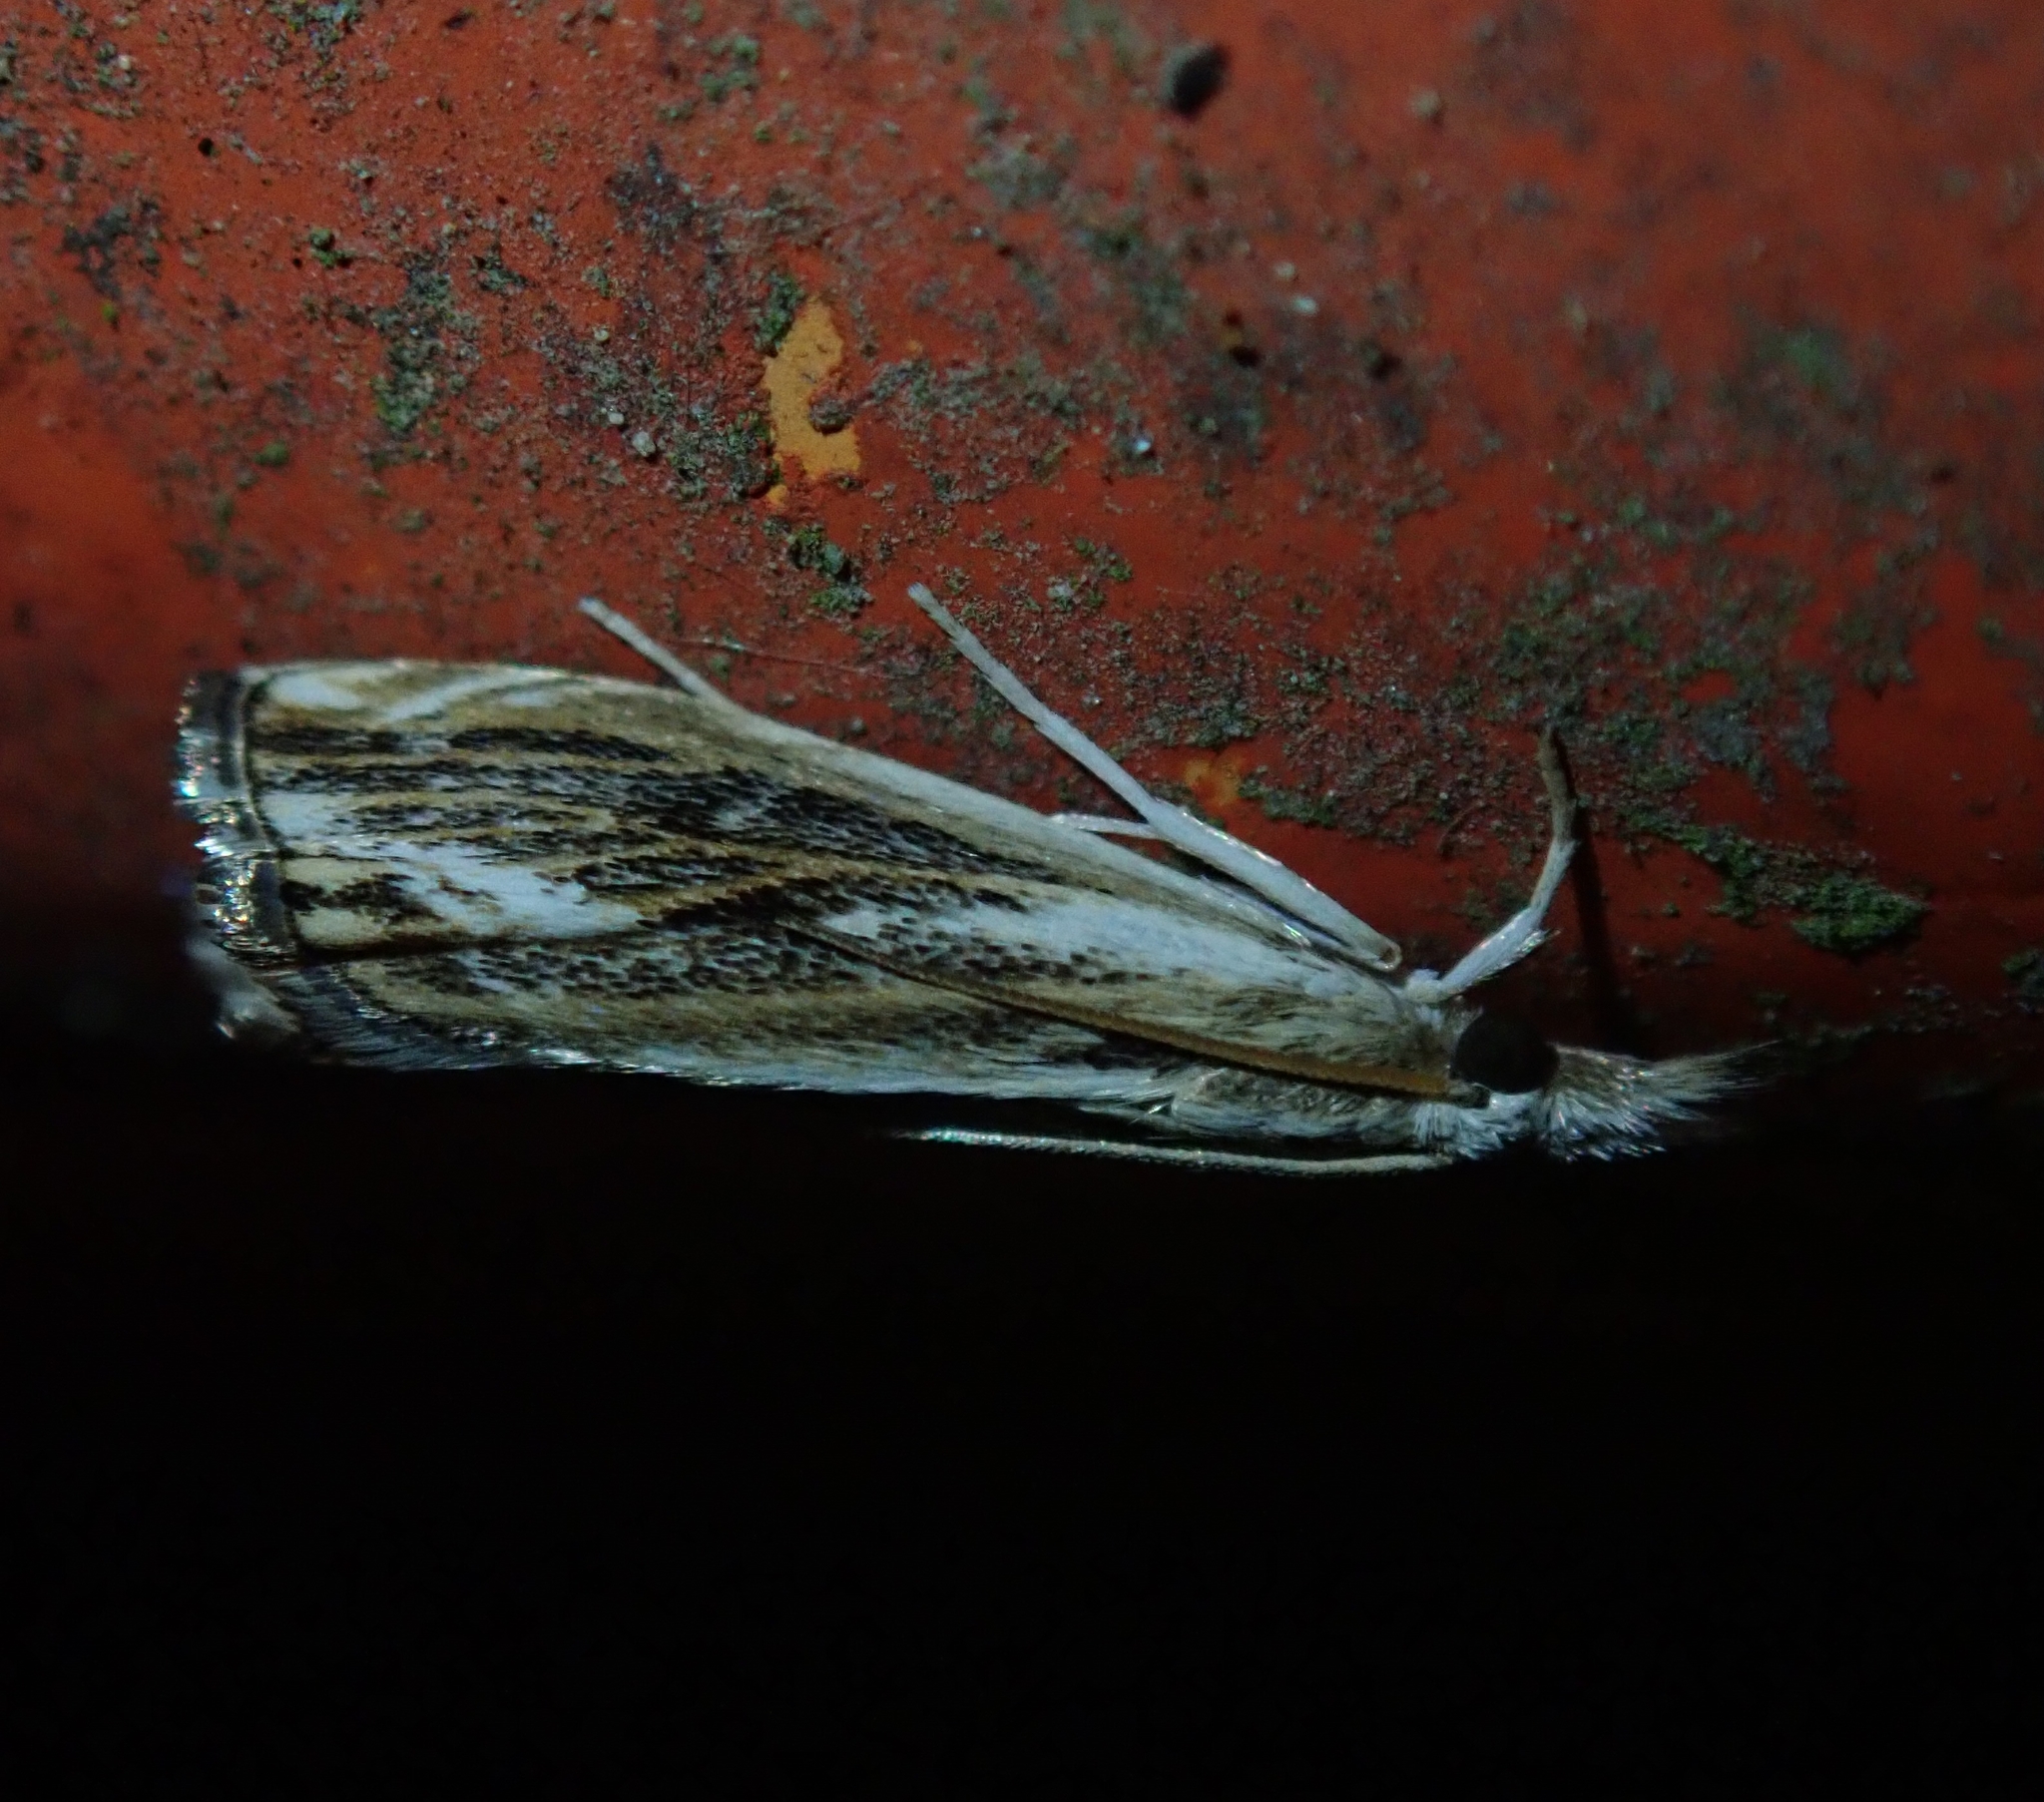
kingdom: Animalia
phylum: Arthropoda
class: Insecta
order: Lepidoptera
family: Crambidae
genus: Catoptria
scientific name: Catoptria verellus
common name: Marbled grass-veneer
